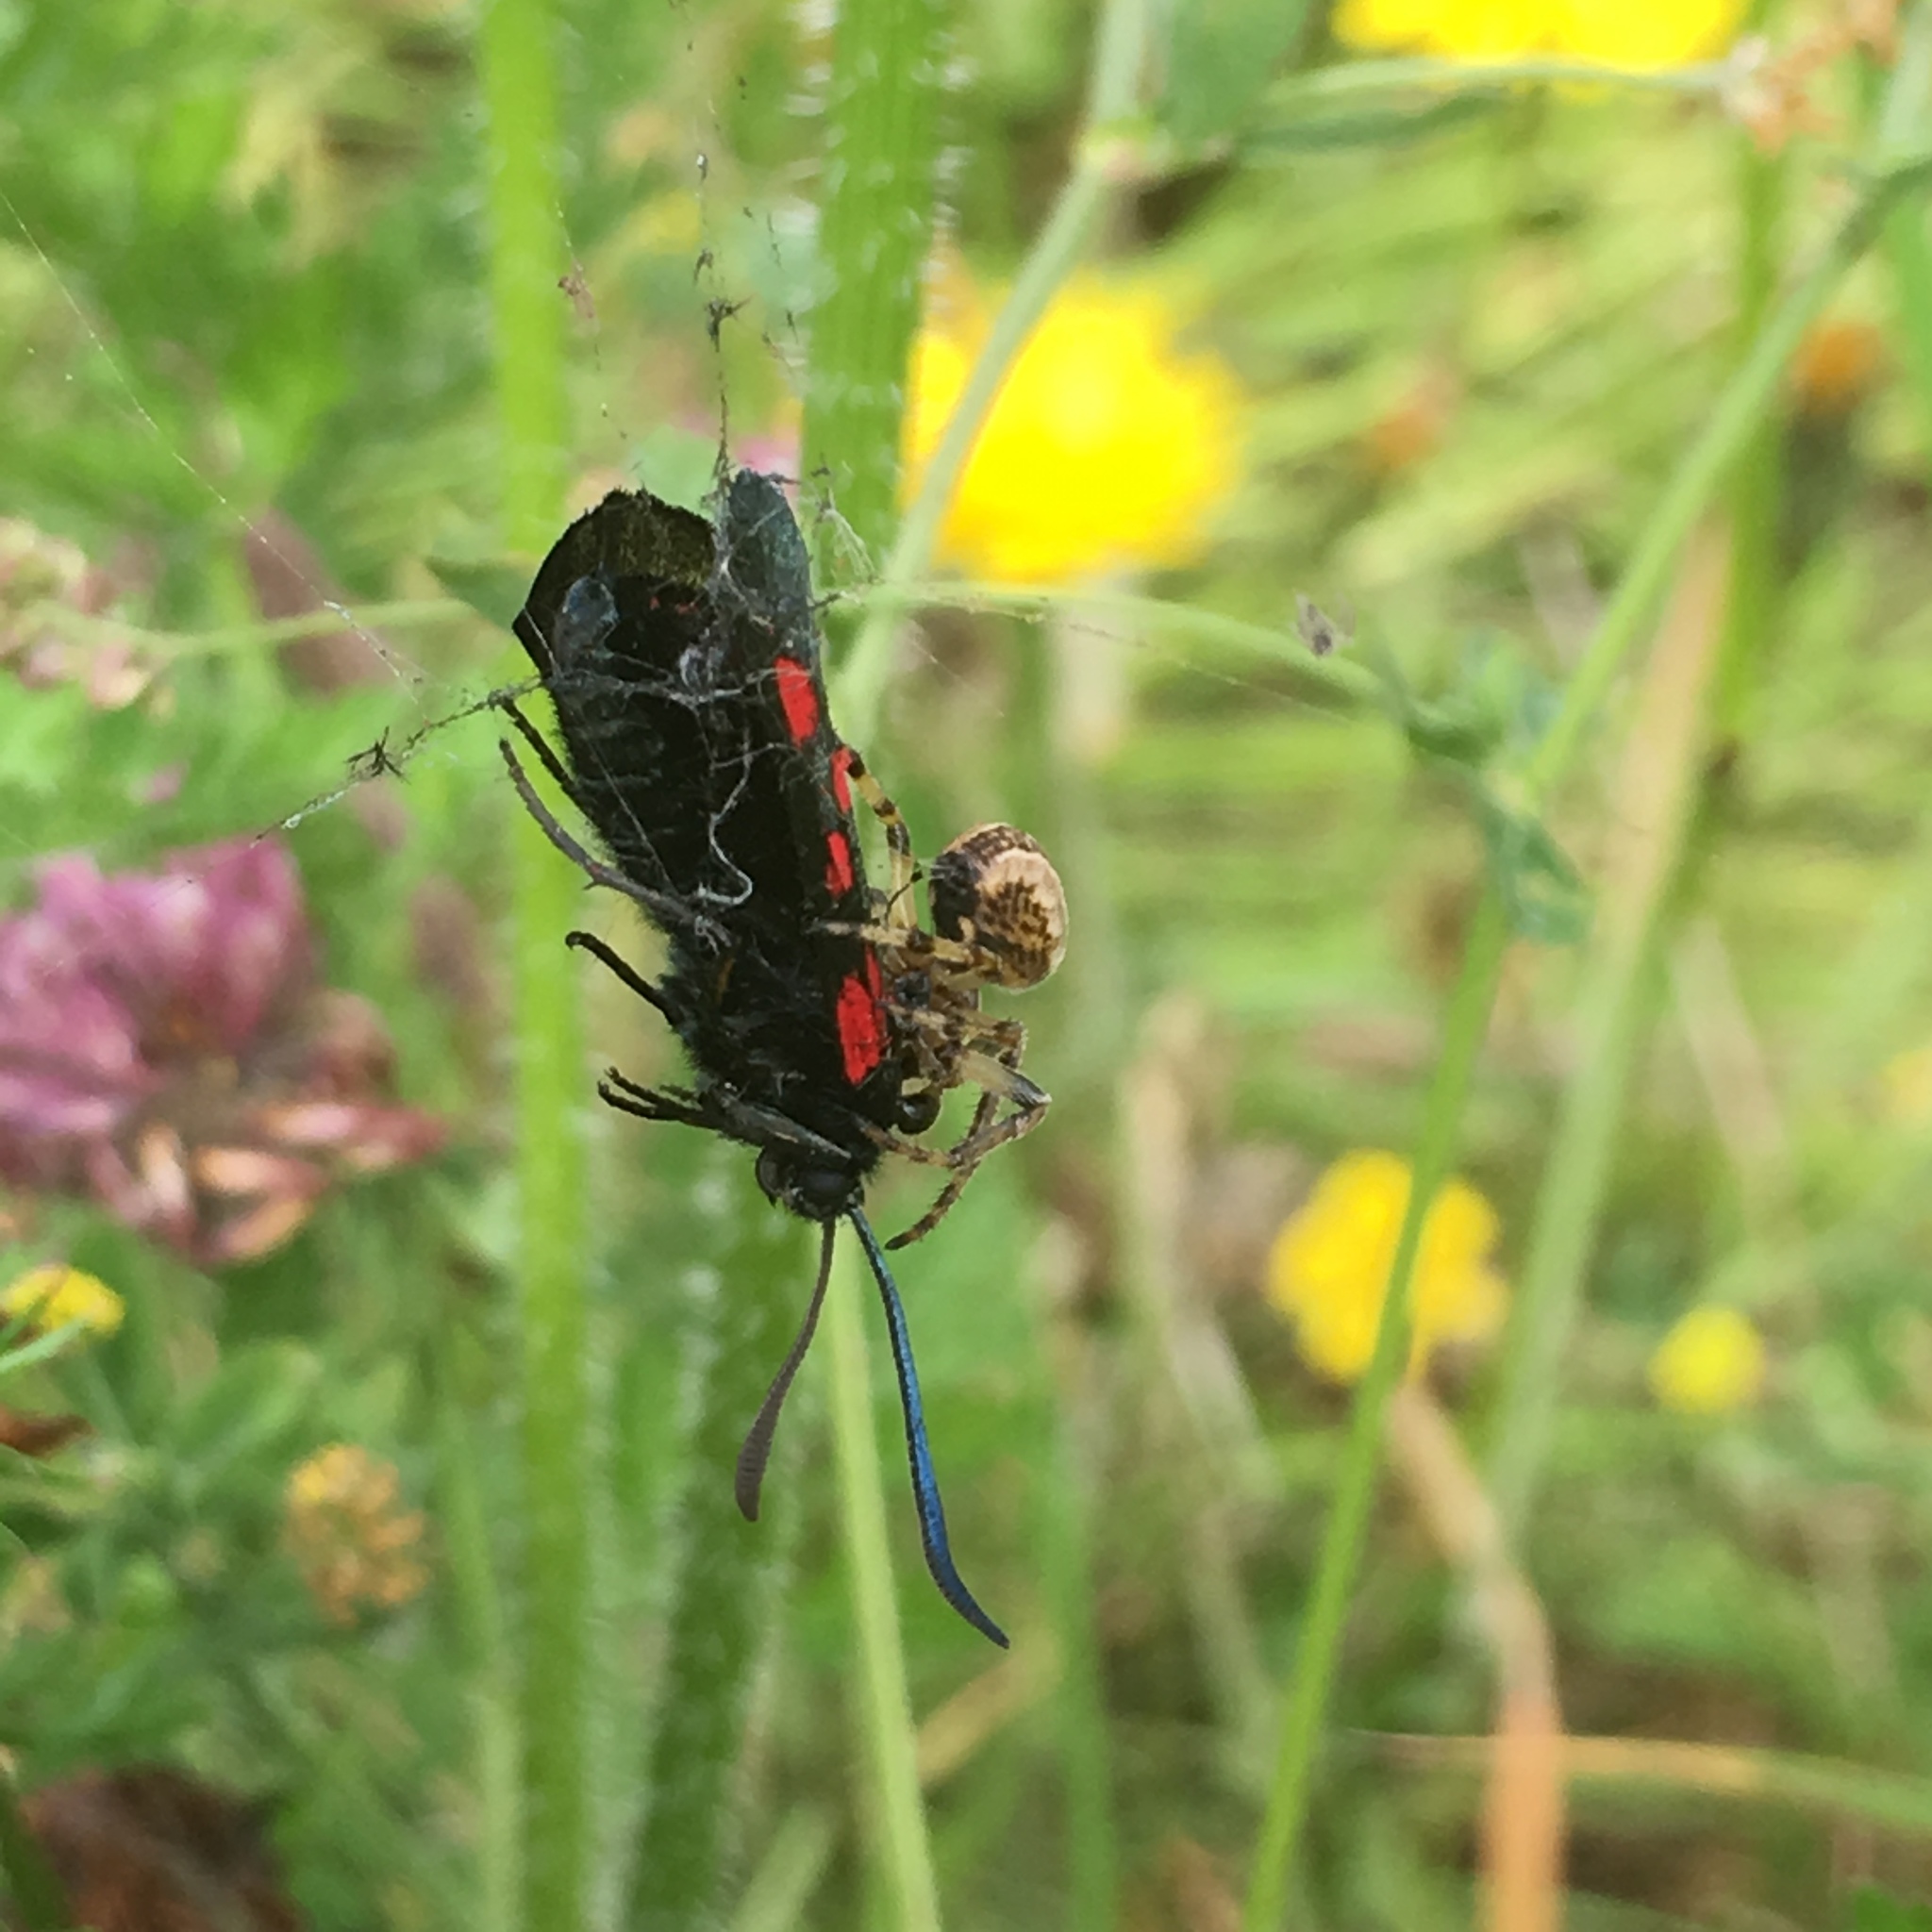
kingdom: Animalia
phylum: Arthropoda
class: Arachnida
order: Araneae
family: Araneidae
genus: Larinioides
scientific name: Larinioides cornutus
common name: Furrow orbweaver
